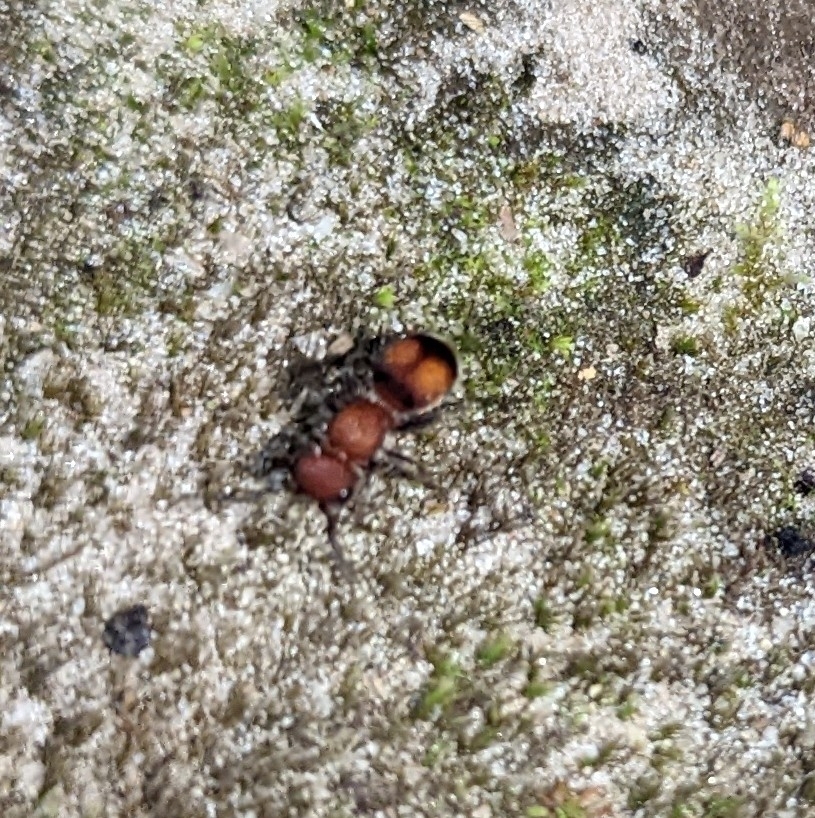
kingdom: Animalia
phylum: Arthropoda
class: Insecta
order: Hymenoptera
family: Mutillidae
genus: Pseudomethoca
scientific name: Pseudomethoca
